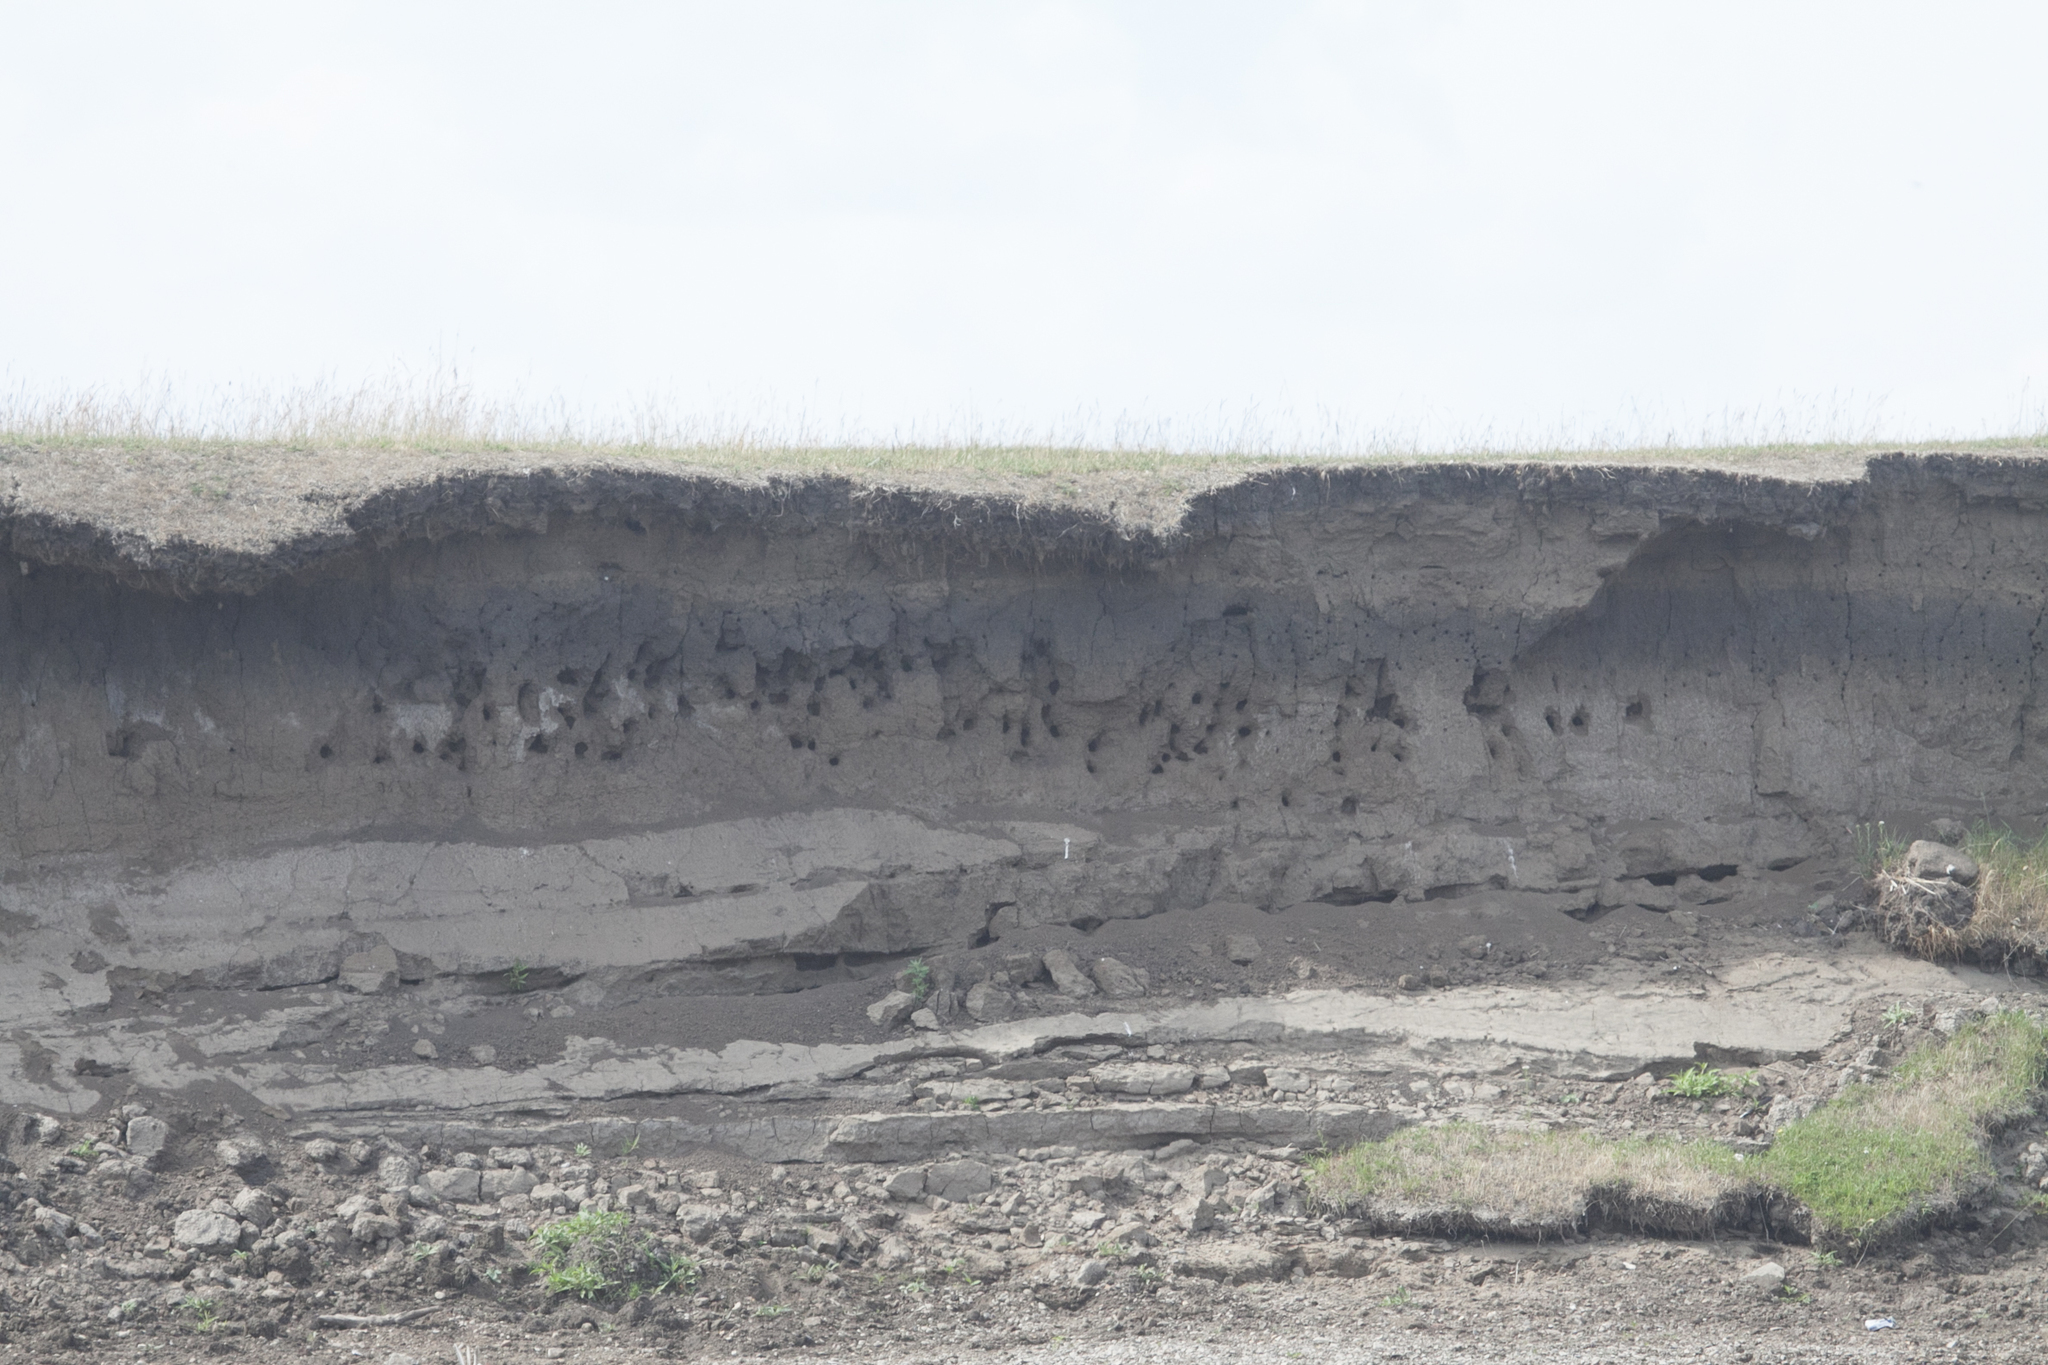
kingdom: Animalia
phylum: Chordata
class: Aves
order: Passeriformes
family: Hirundinidae
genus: Riparia
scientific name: Riparia riparia
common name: Sand martin
